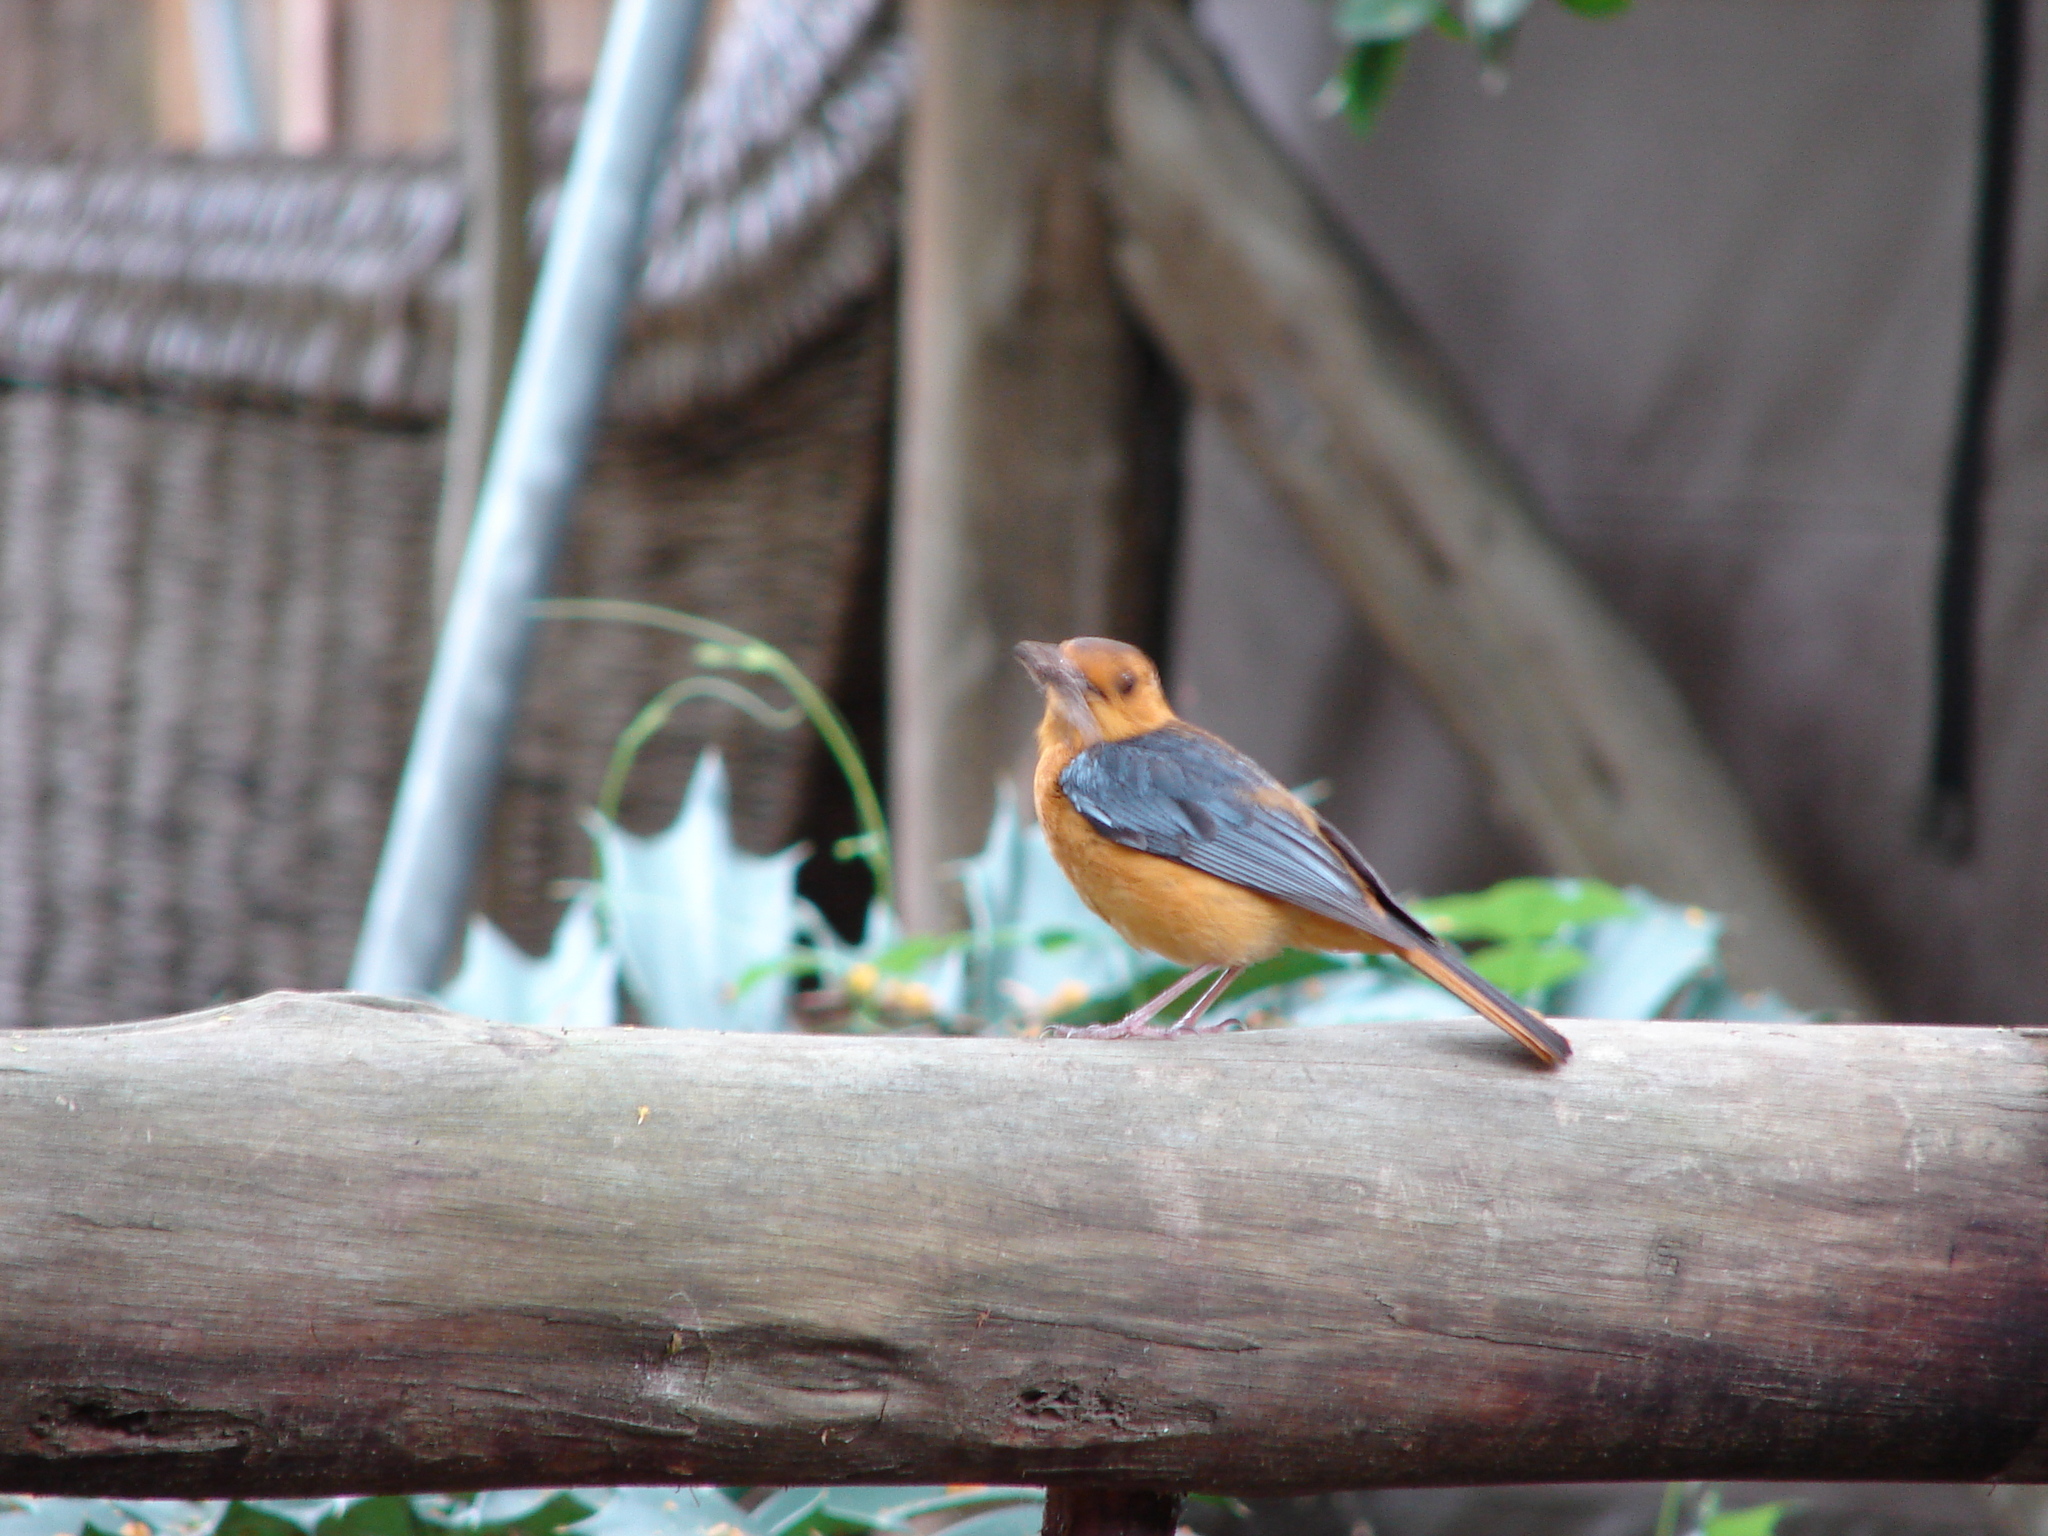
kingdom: Animalia
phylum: Chordata
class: Aves
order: Passeriformes
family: Muscicapidae
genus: Cossypha
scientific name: Cossypha natalensis
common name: Red-capped robin-chat
